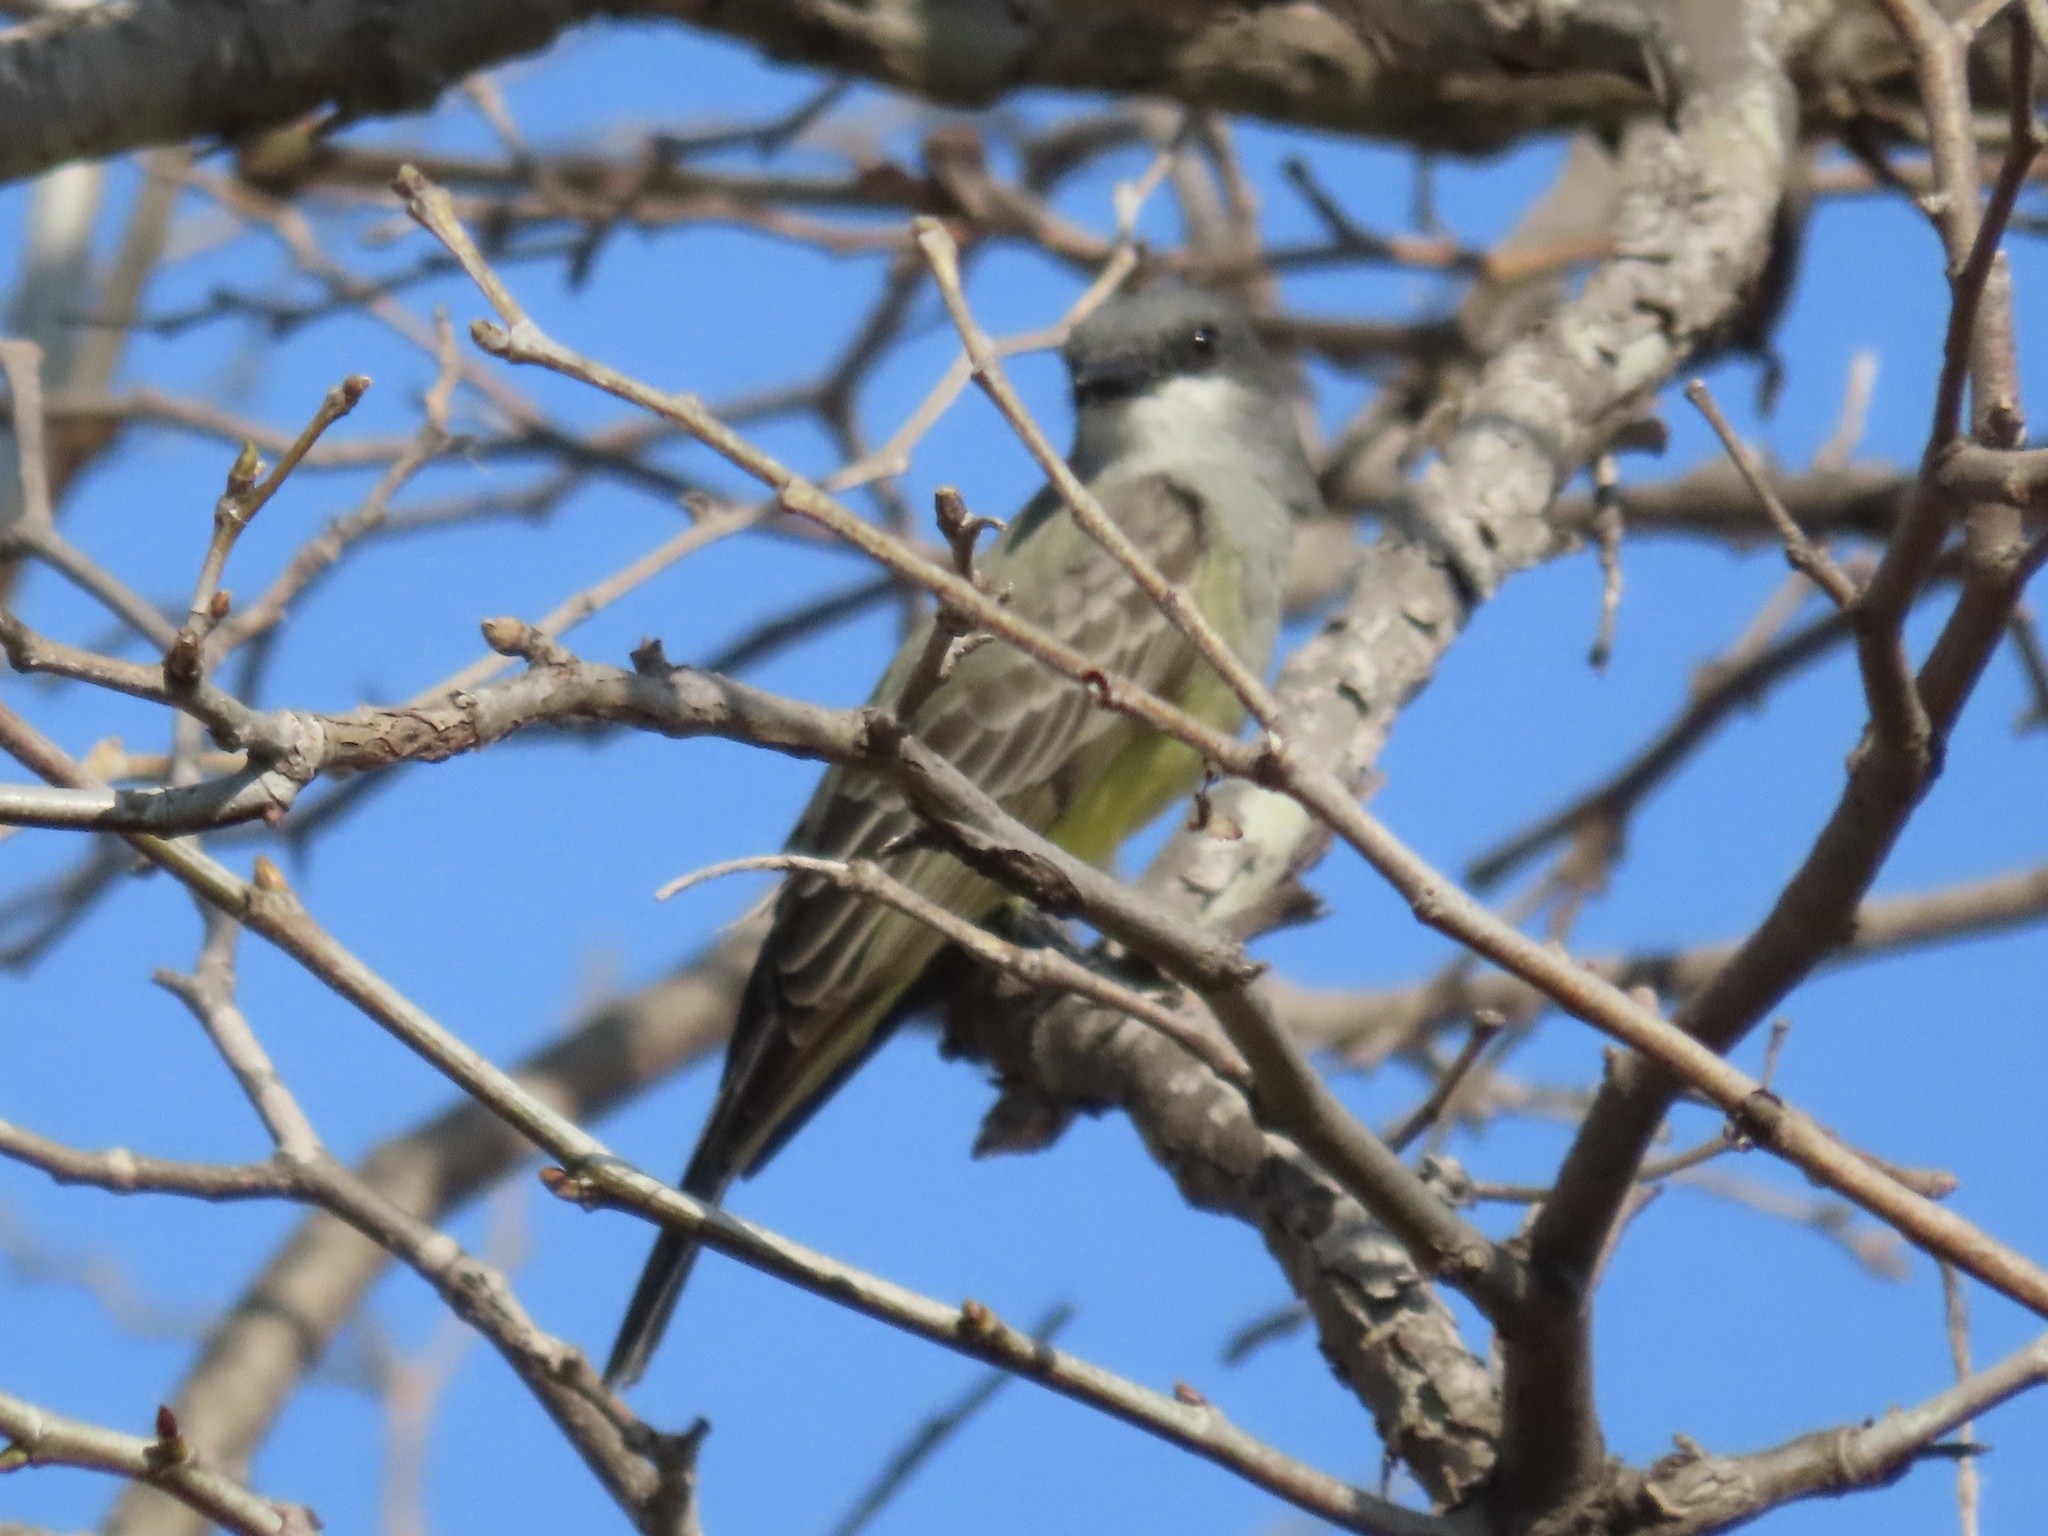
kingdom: Animalia
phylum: Chordata
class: Aves
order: Passeriformes
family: Tyrannidae
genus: Tyrannus
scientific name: Tyrannus vociferans
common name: Cassin's kingbird
